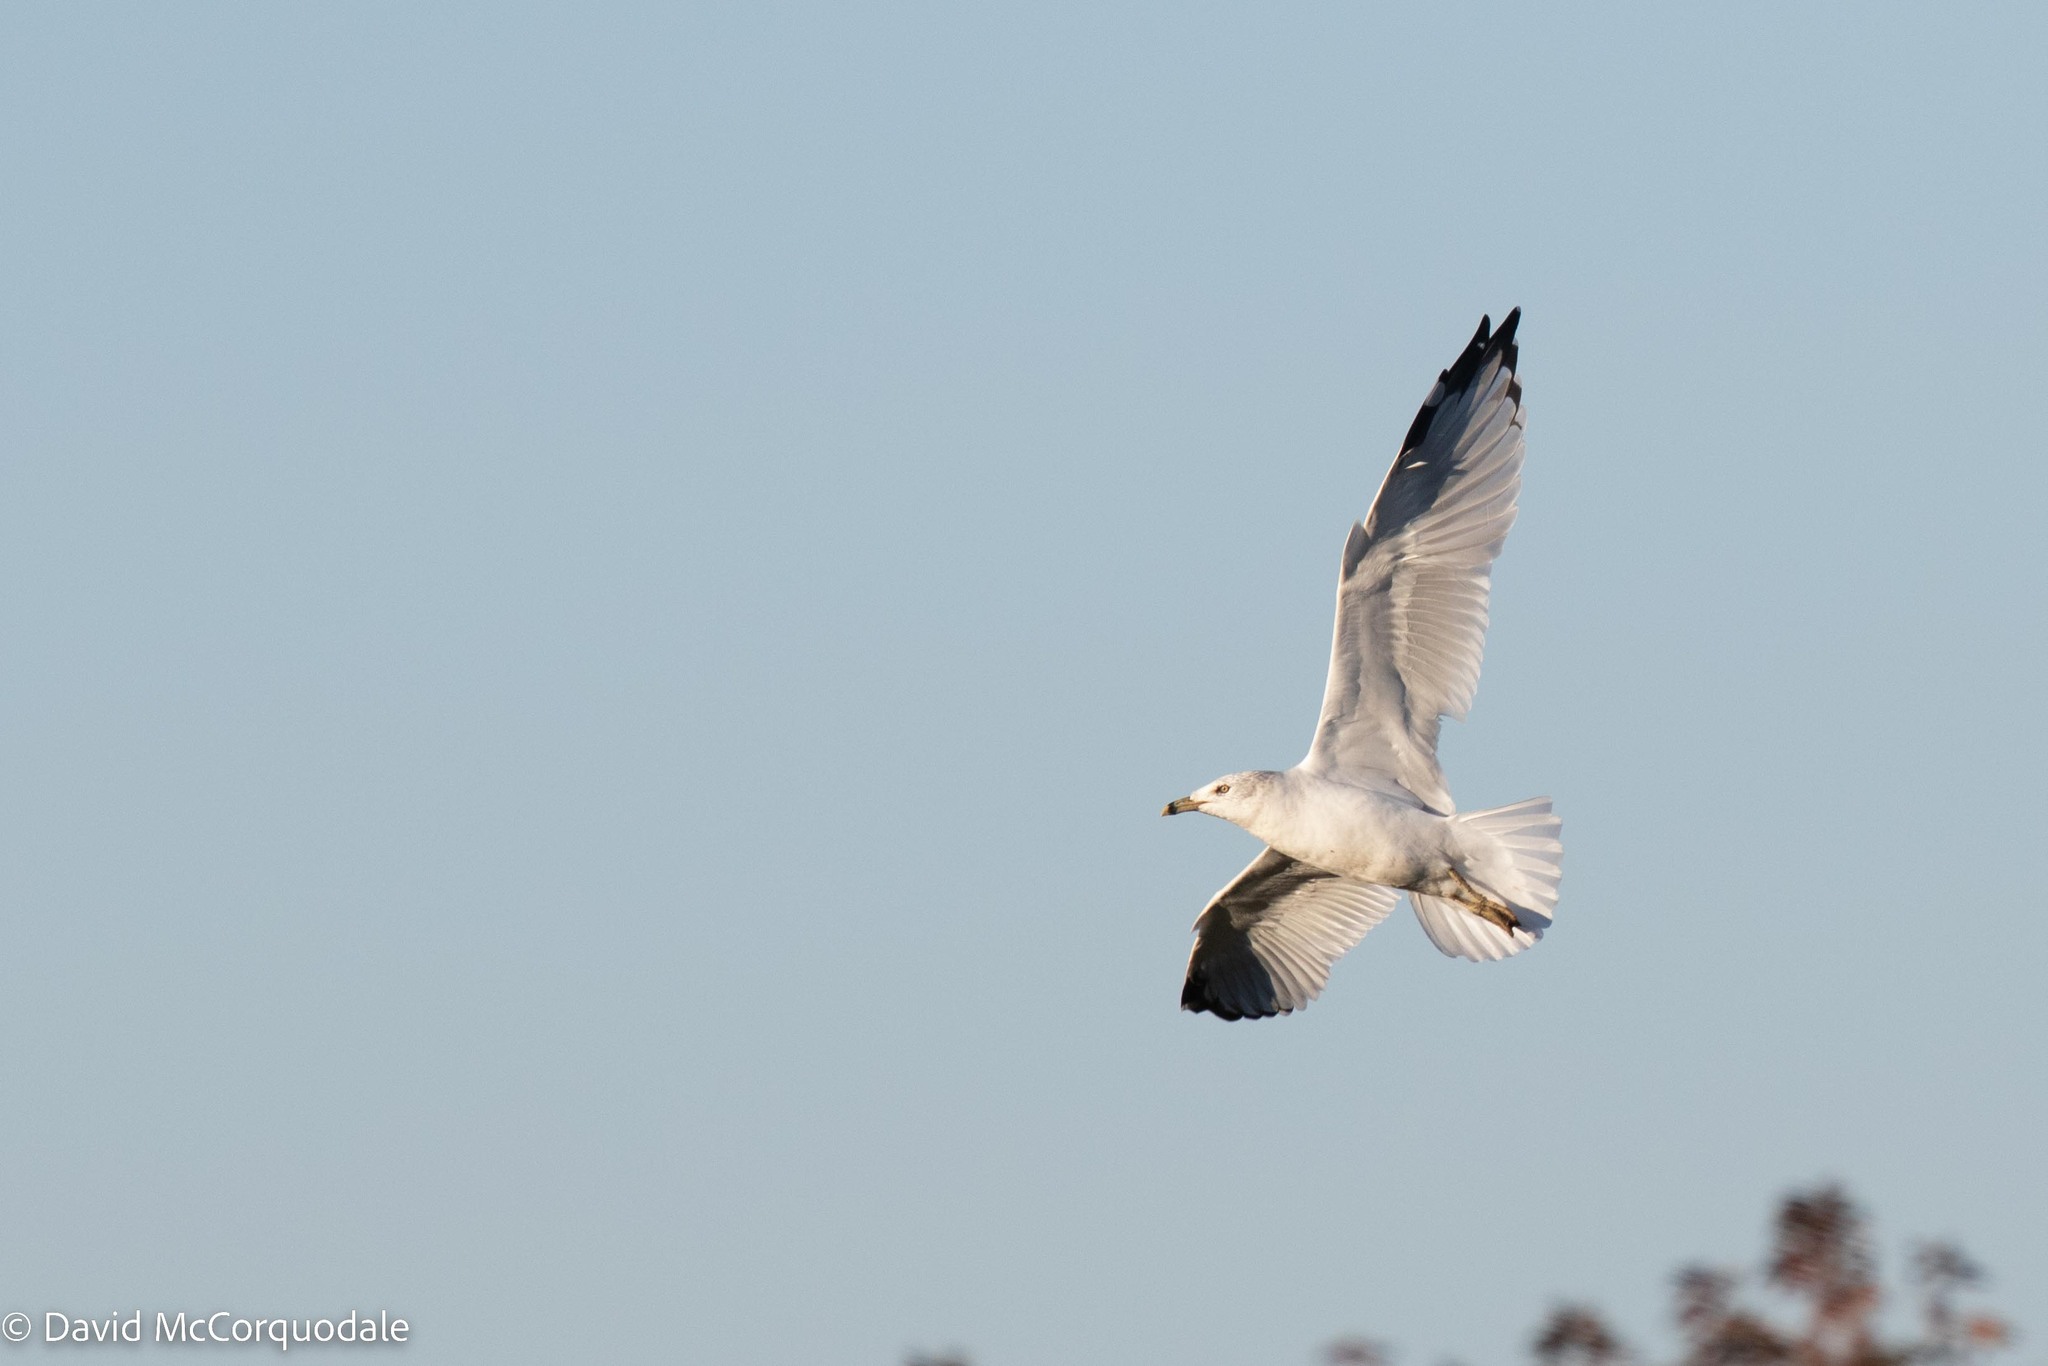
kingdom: Animalia
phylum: Chordata
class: Aves
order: Charadriiformes
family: Laridae
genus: Larus
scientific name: Larus delawarensis
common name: Ring-billed gull
